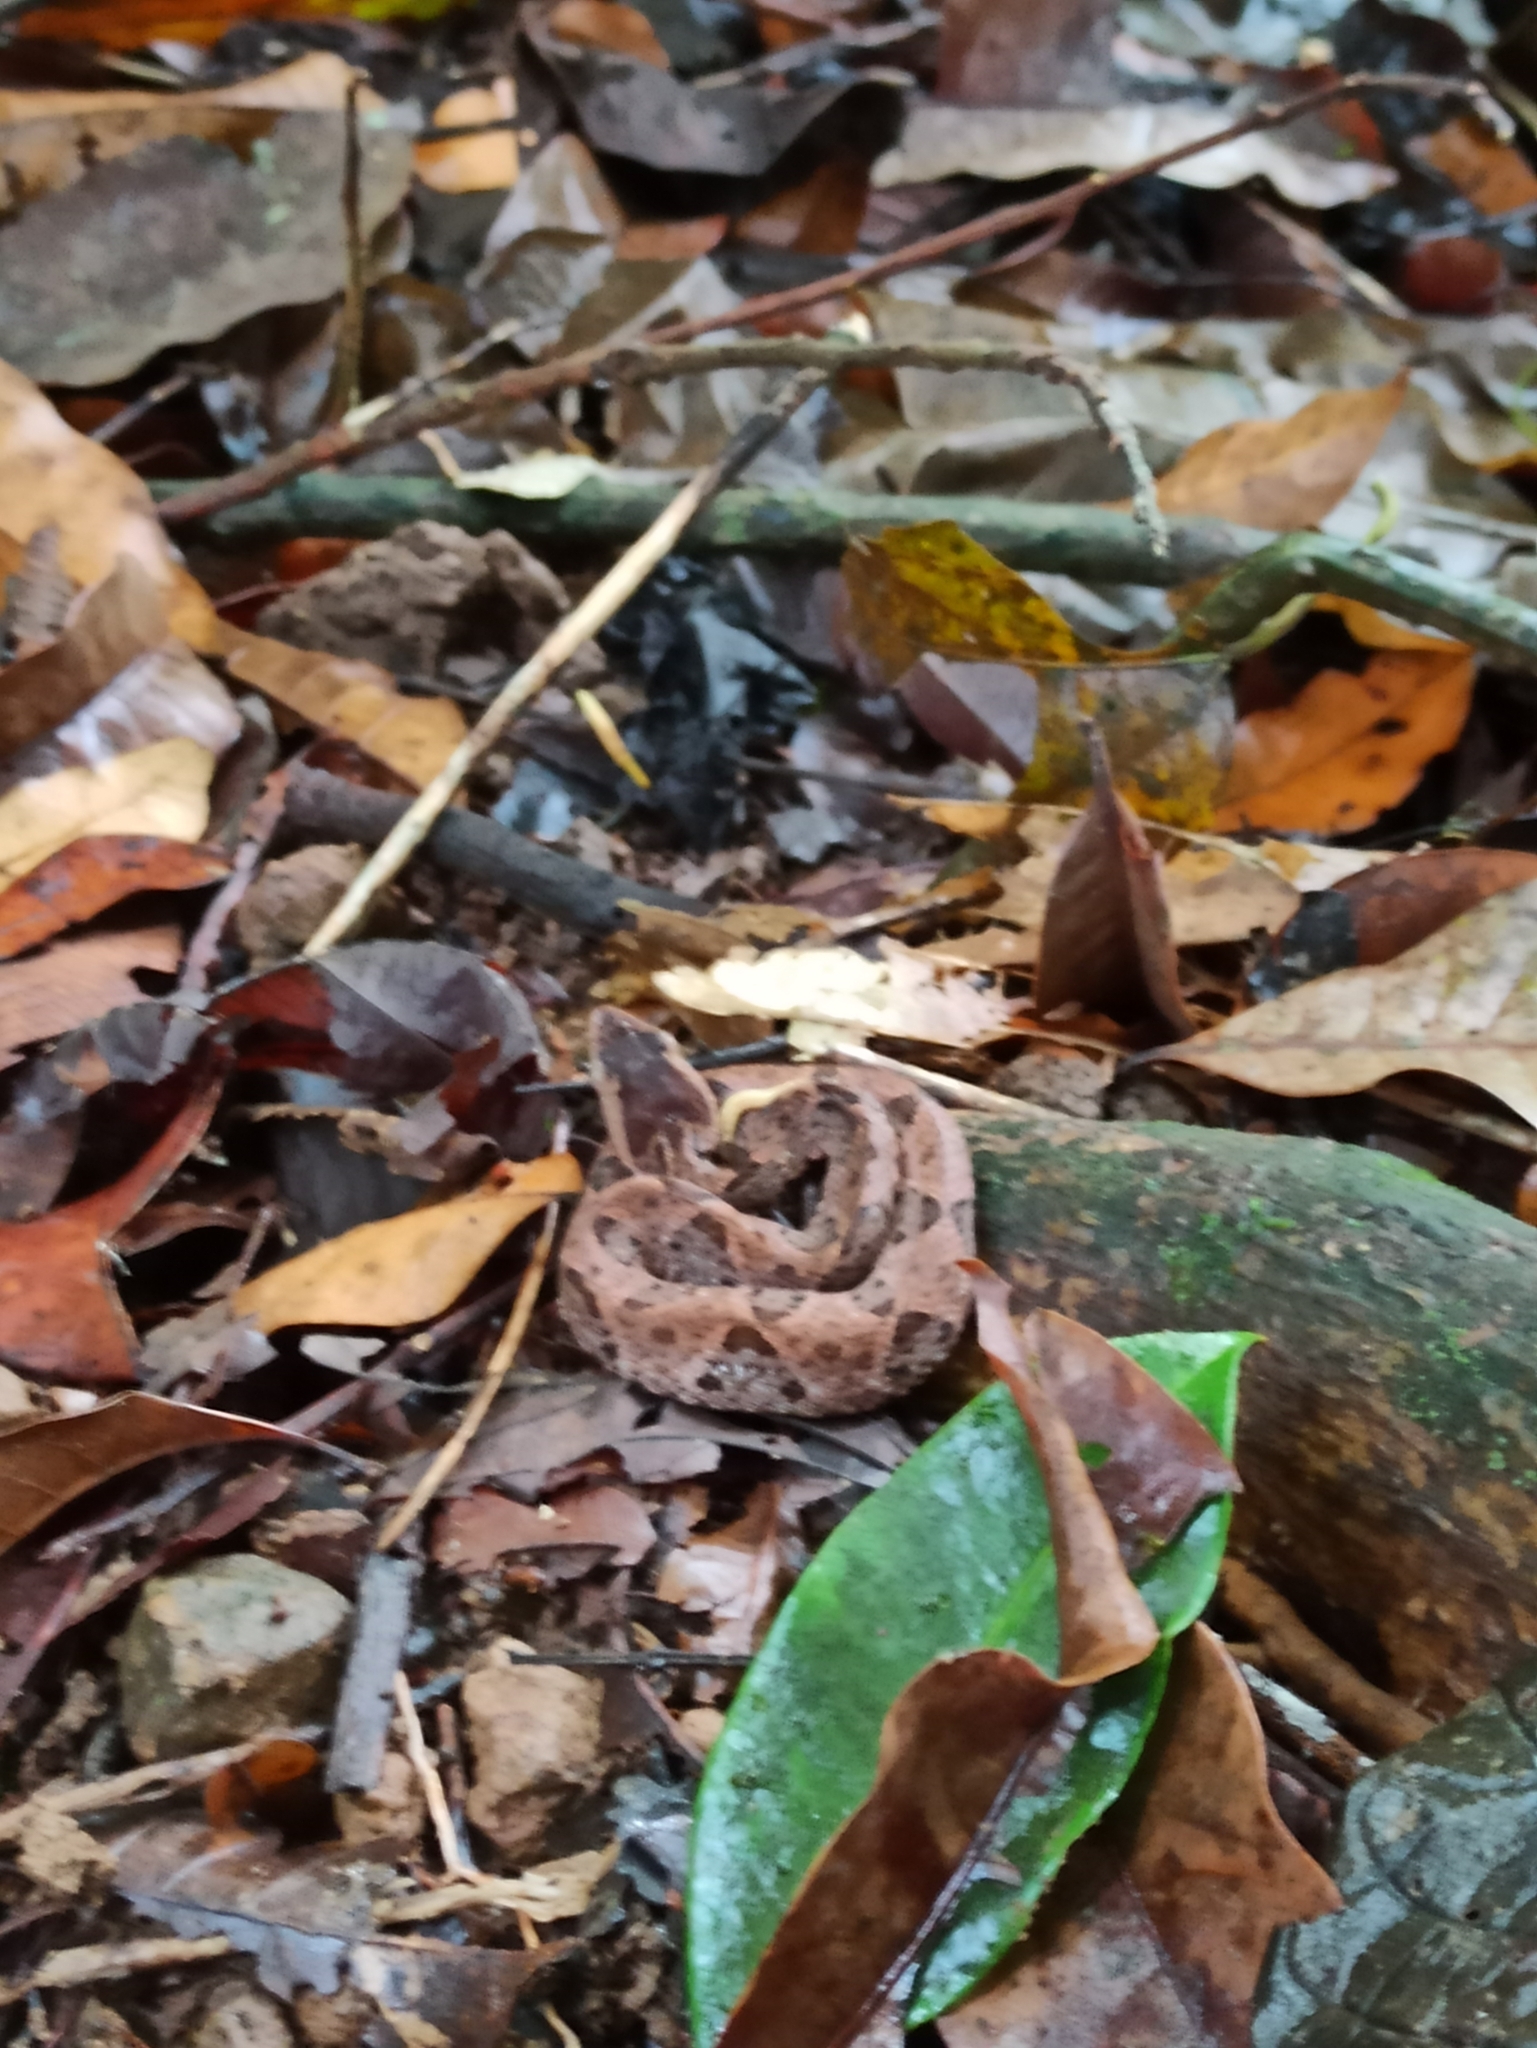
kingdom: Animalia
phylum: Chordata
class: Squamata
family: Viperidae
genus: Bothrops
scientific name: Bothrops asper
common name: Terciopelo
